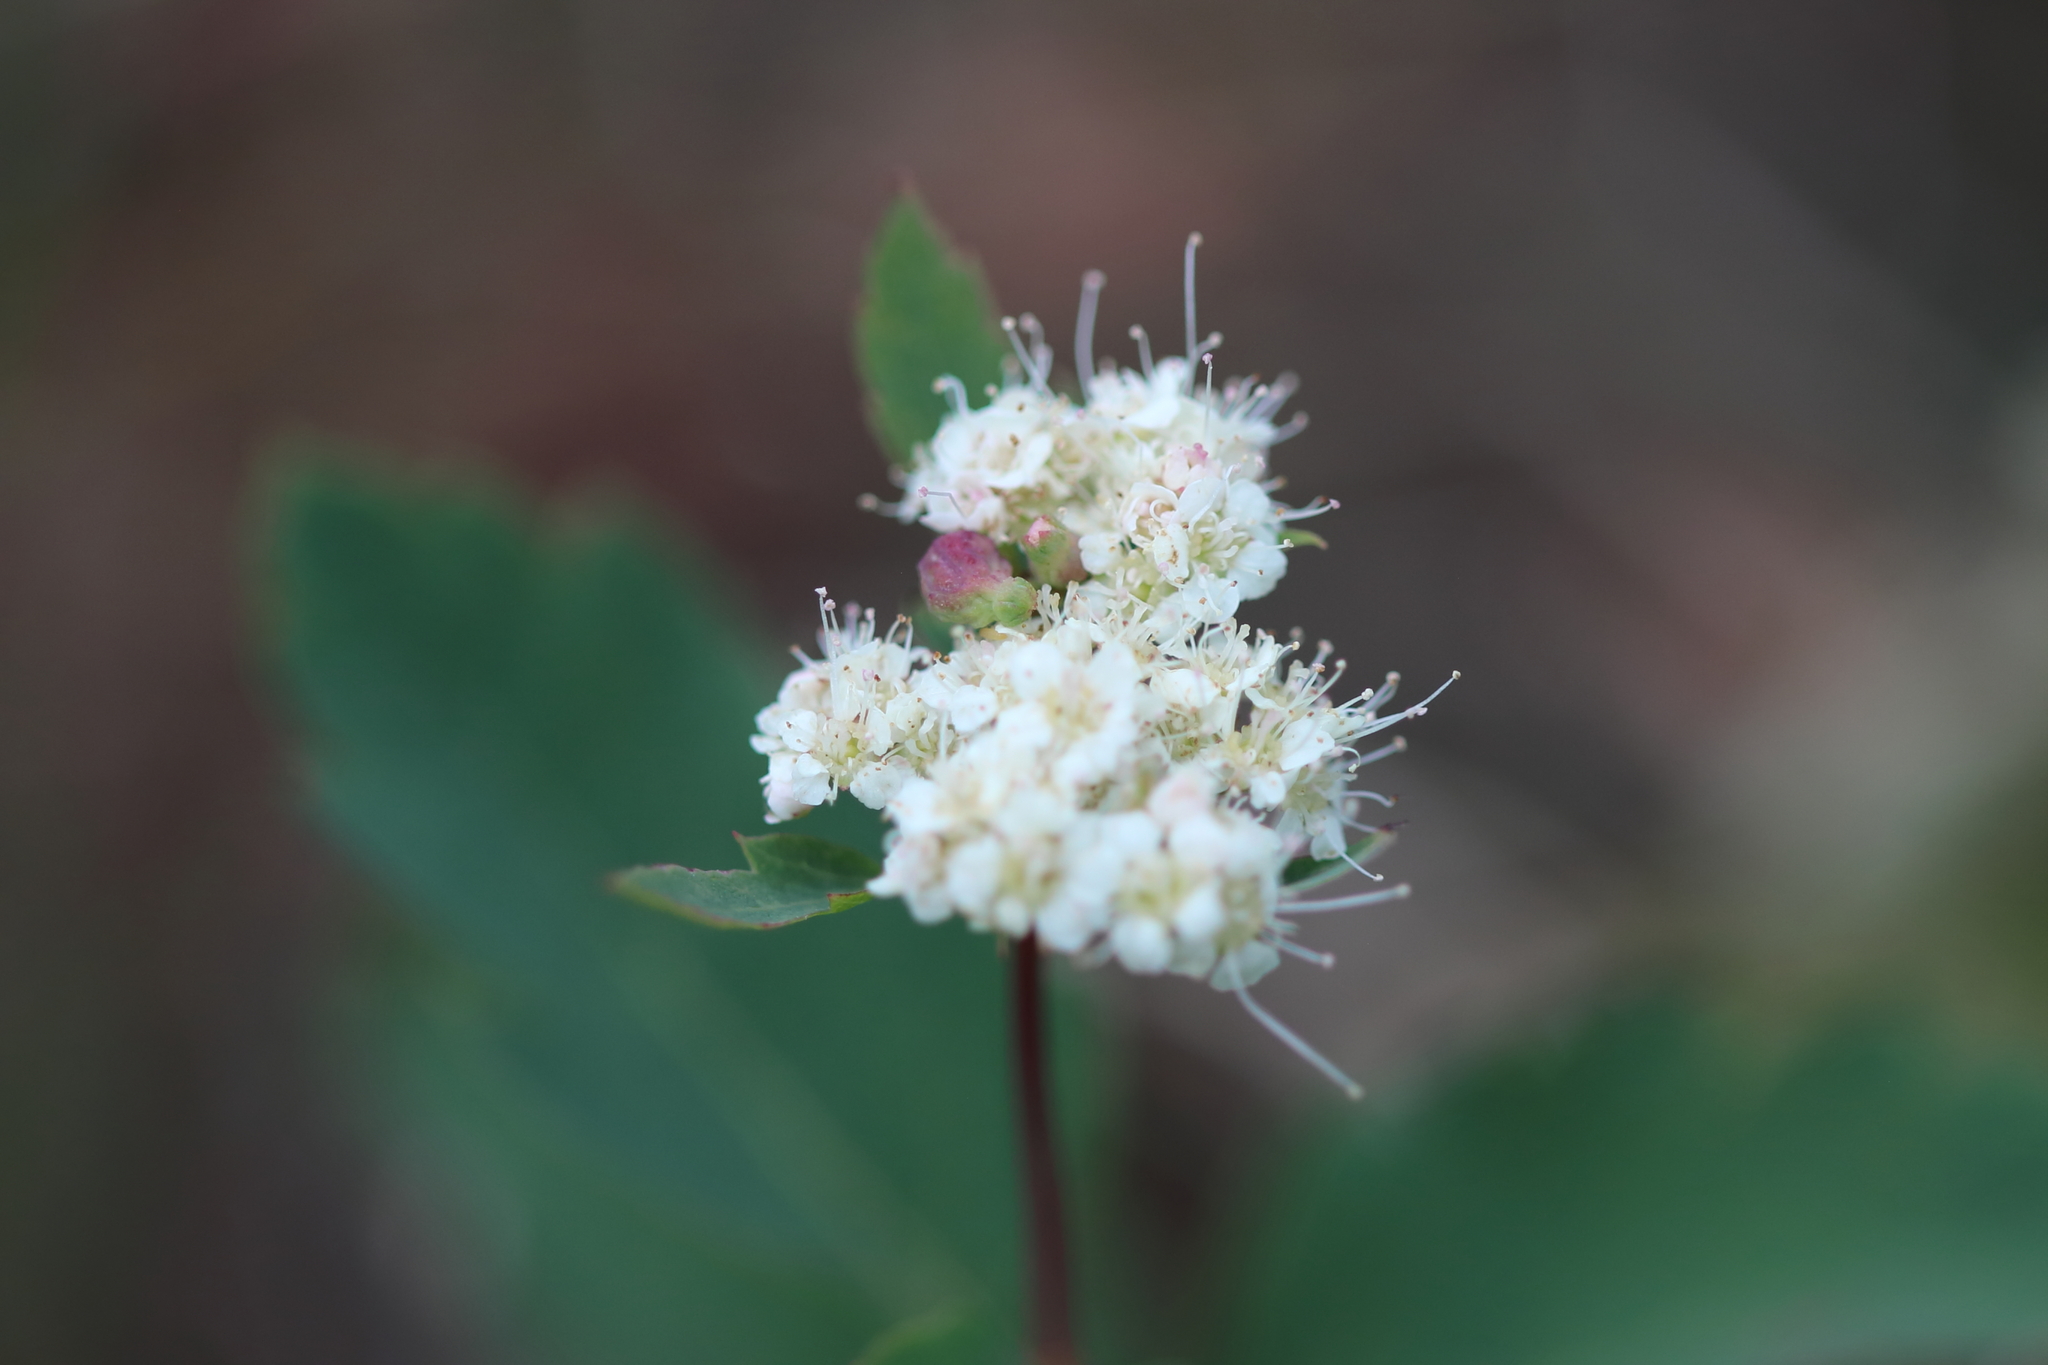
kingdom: Animalia
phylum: Arthropoda
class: Arachnida
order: Trombidiformes
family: Eriophyidae
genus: Eriophyes
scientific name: Eriophyes
